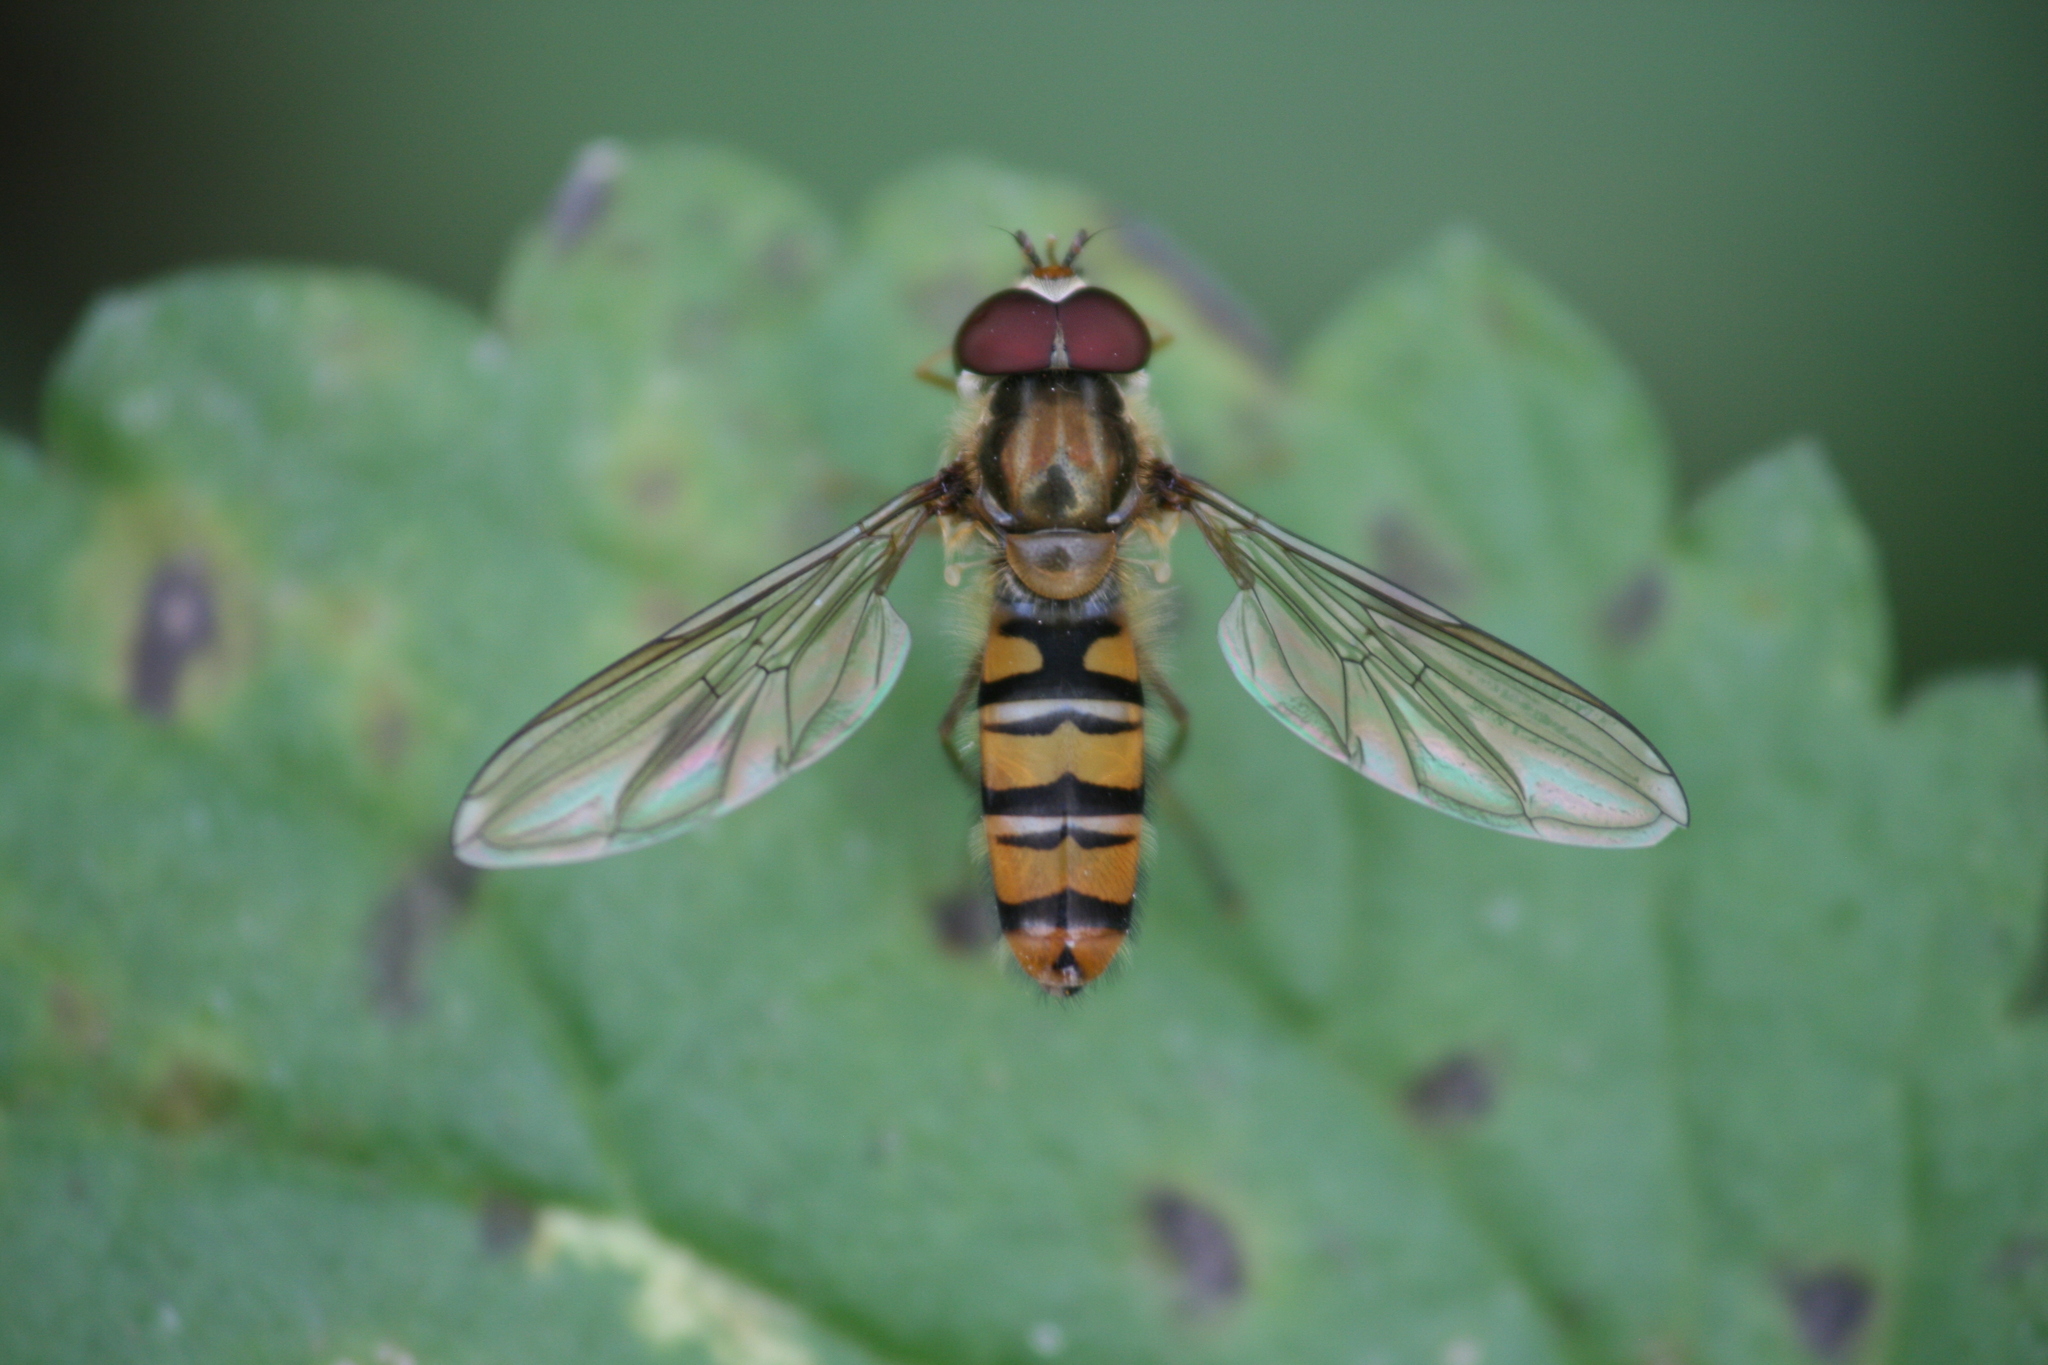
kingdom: Animalia
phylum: Arthropoda
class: Insecta
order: Diptera
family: Syrphidae
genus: Episyrphus
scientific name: Episyrphus balteatus
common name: Marmalade hoverfly
